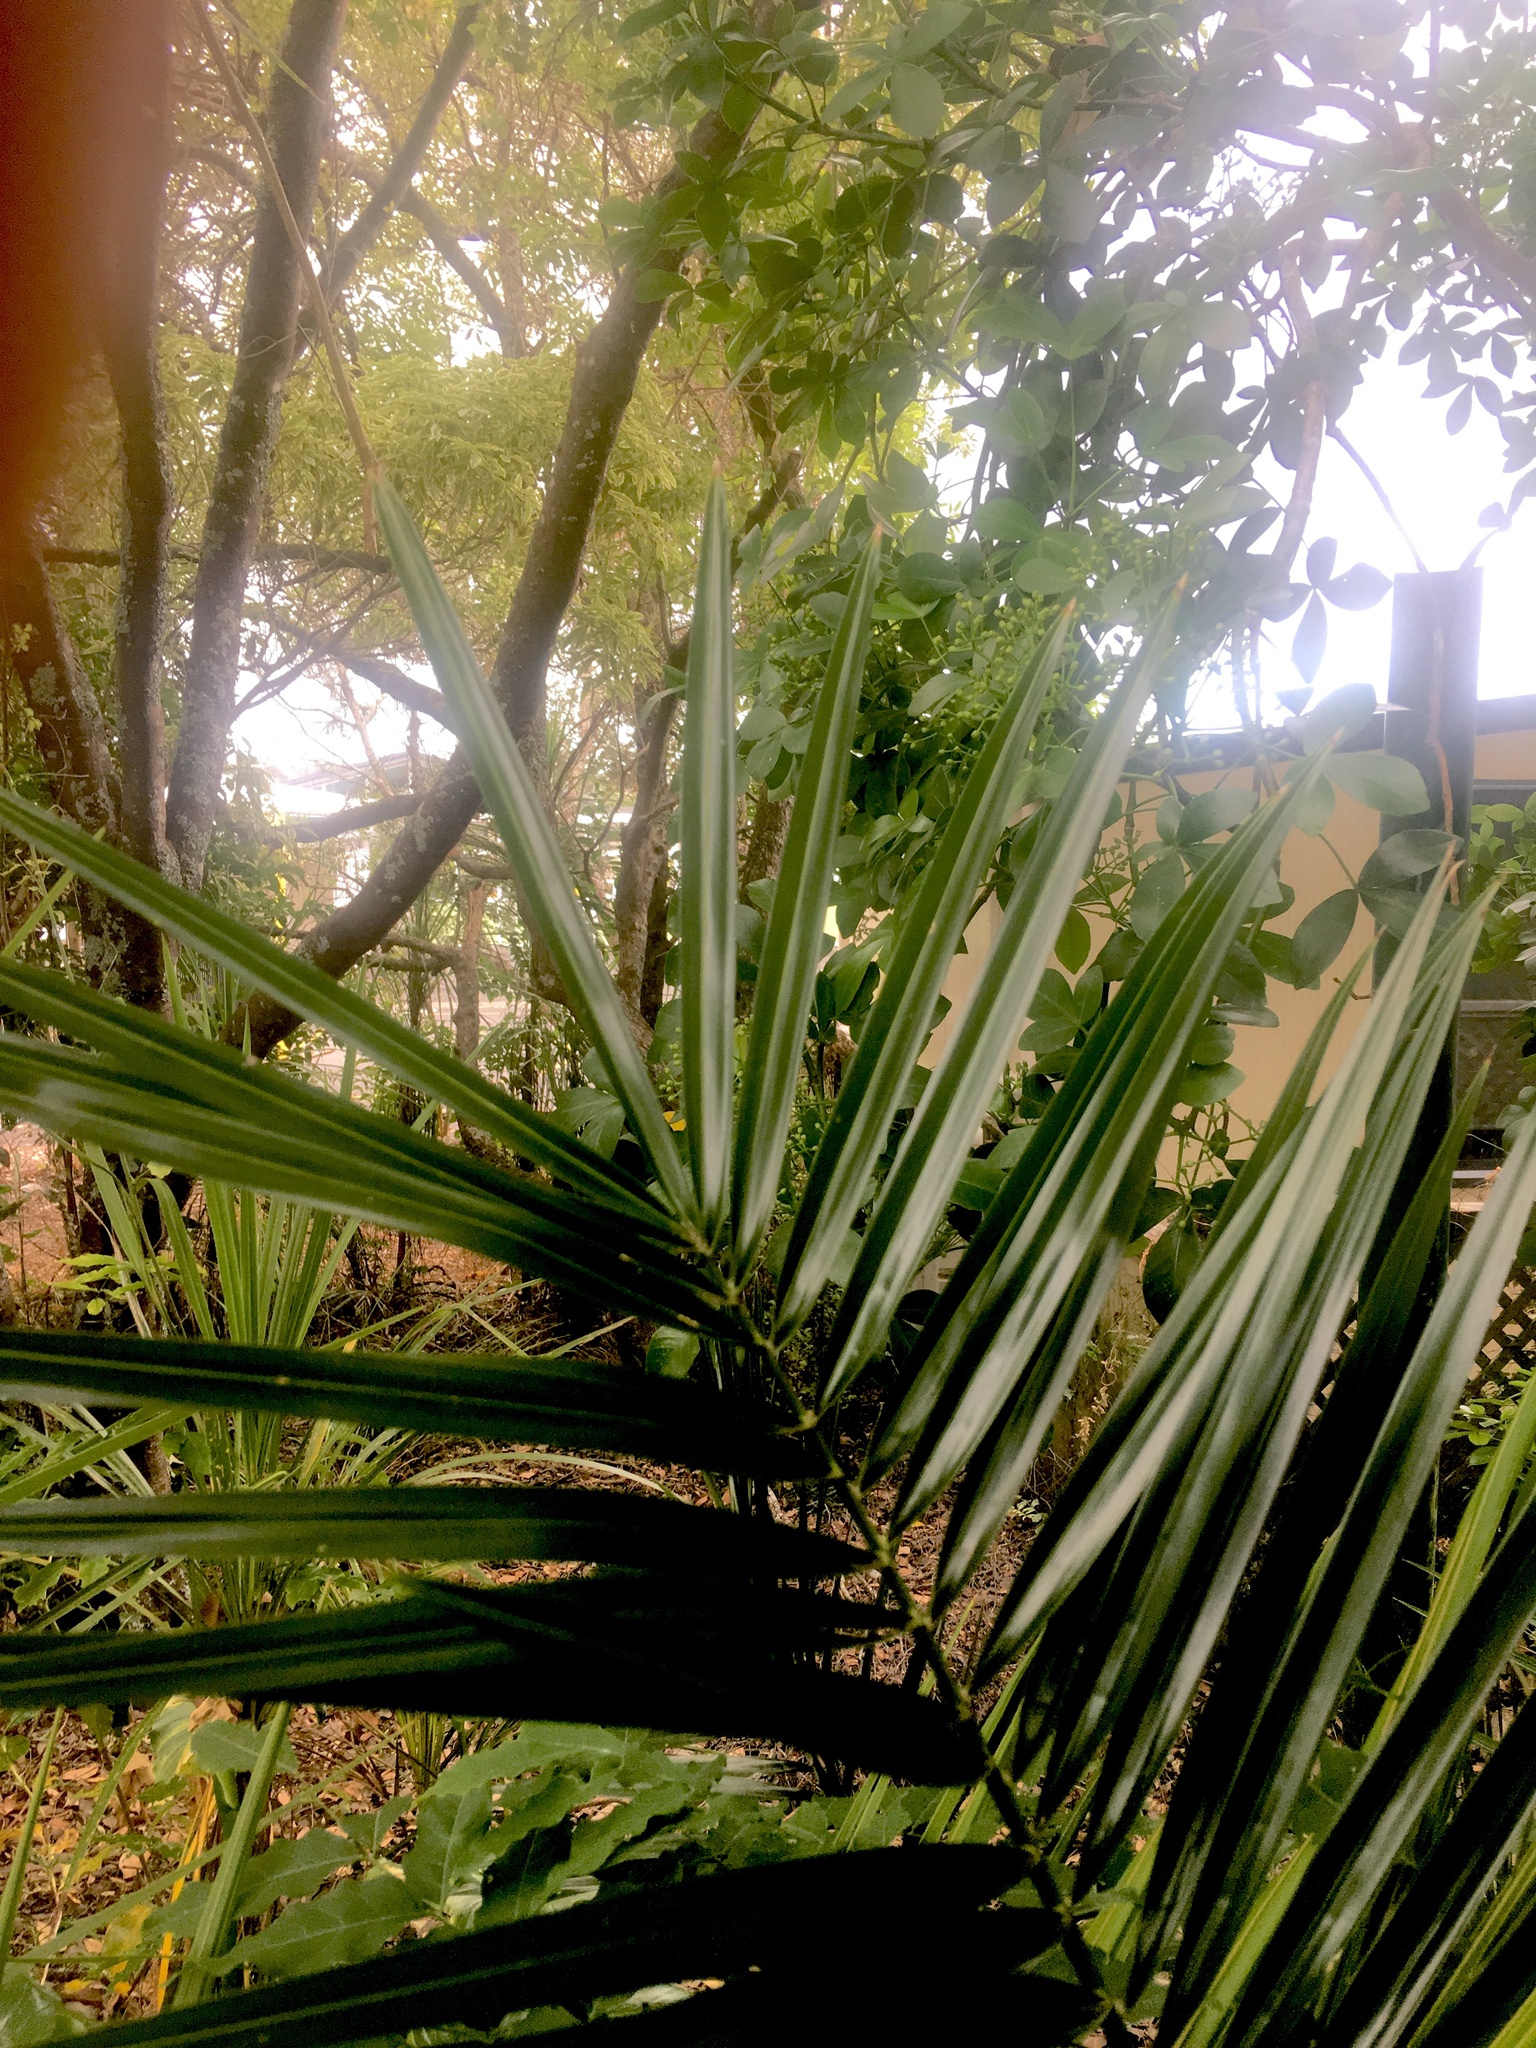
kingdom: Plantae
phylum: Tracheophyta
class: Liliopsida
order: Arecales
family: Arecaceae
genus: Phoenix
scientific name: Phoenix canariensis
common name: Canary island date palm
